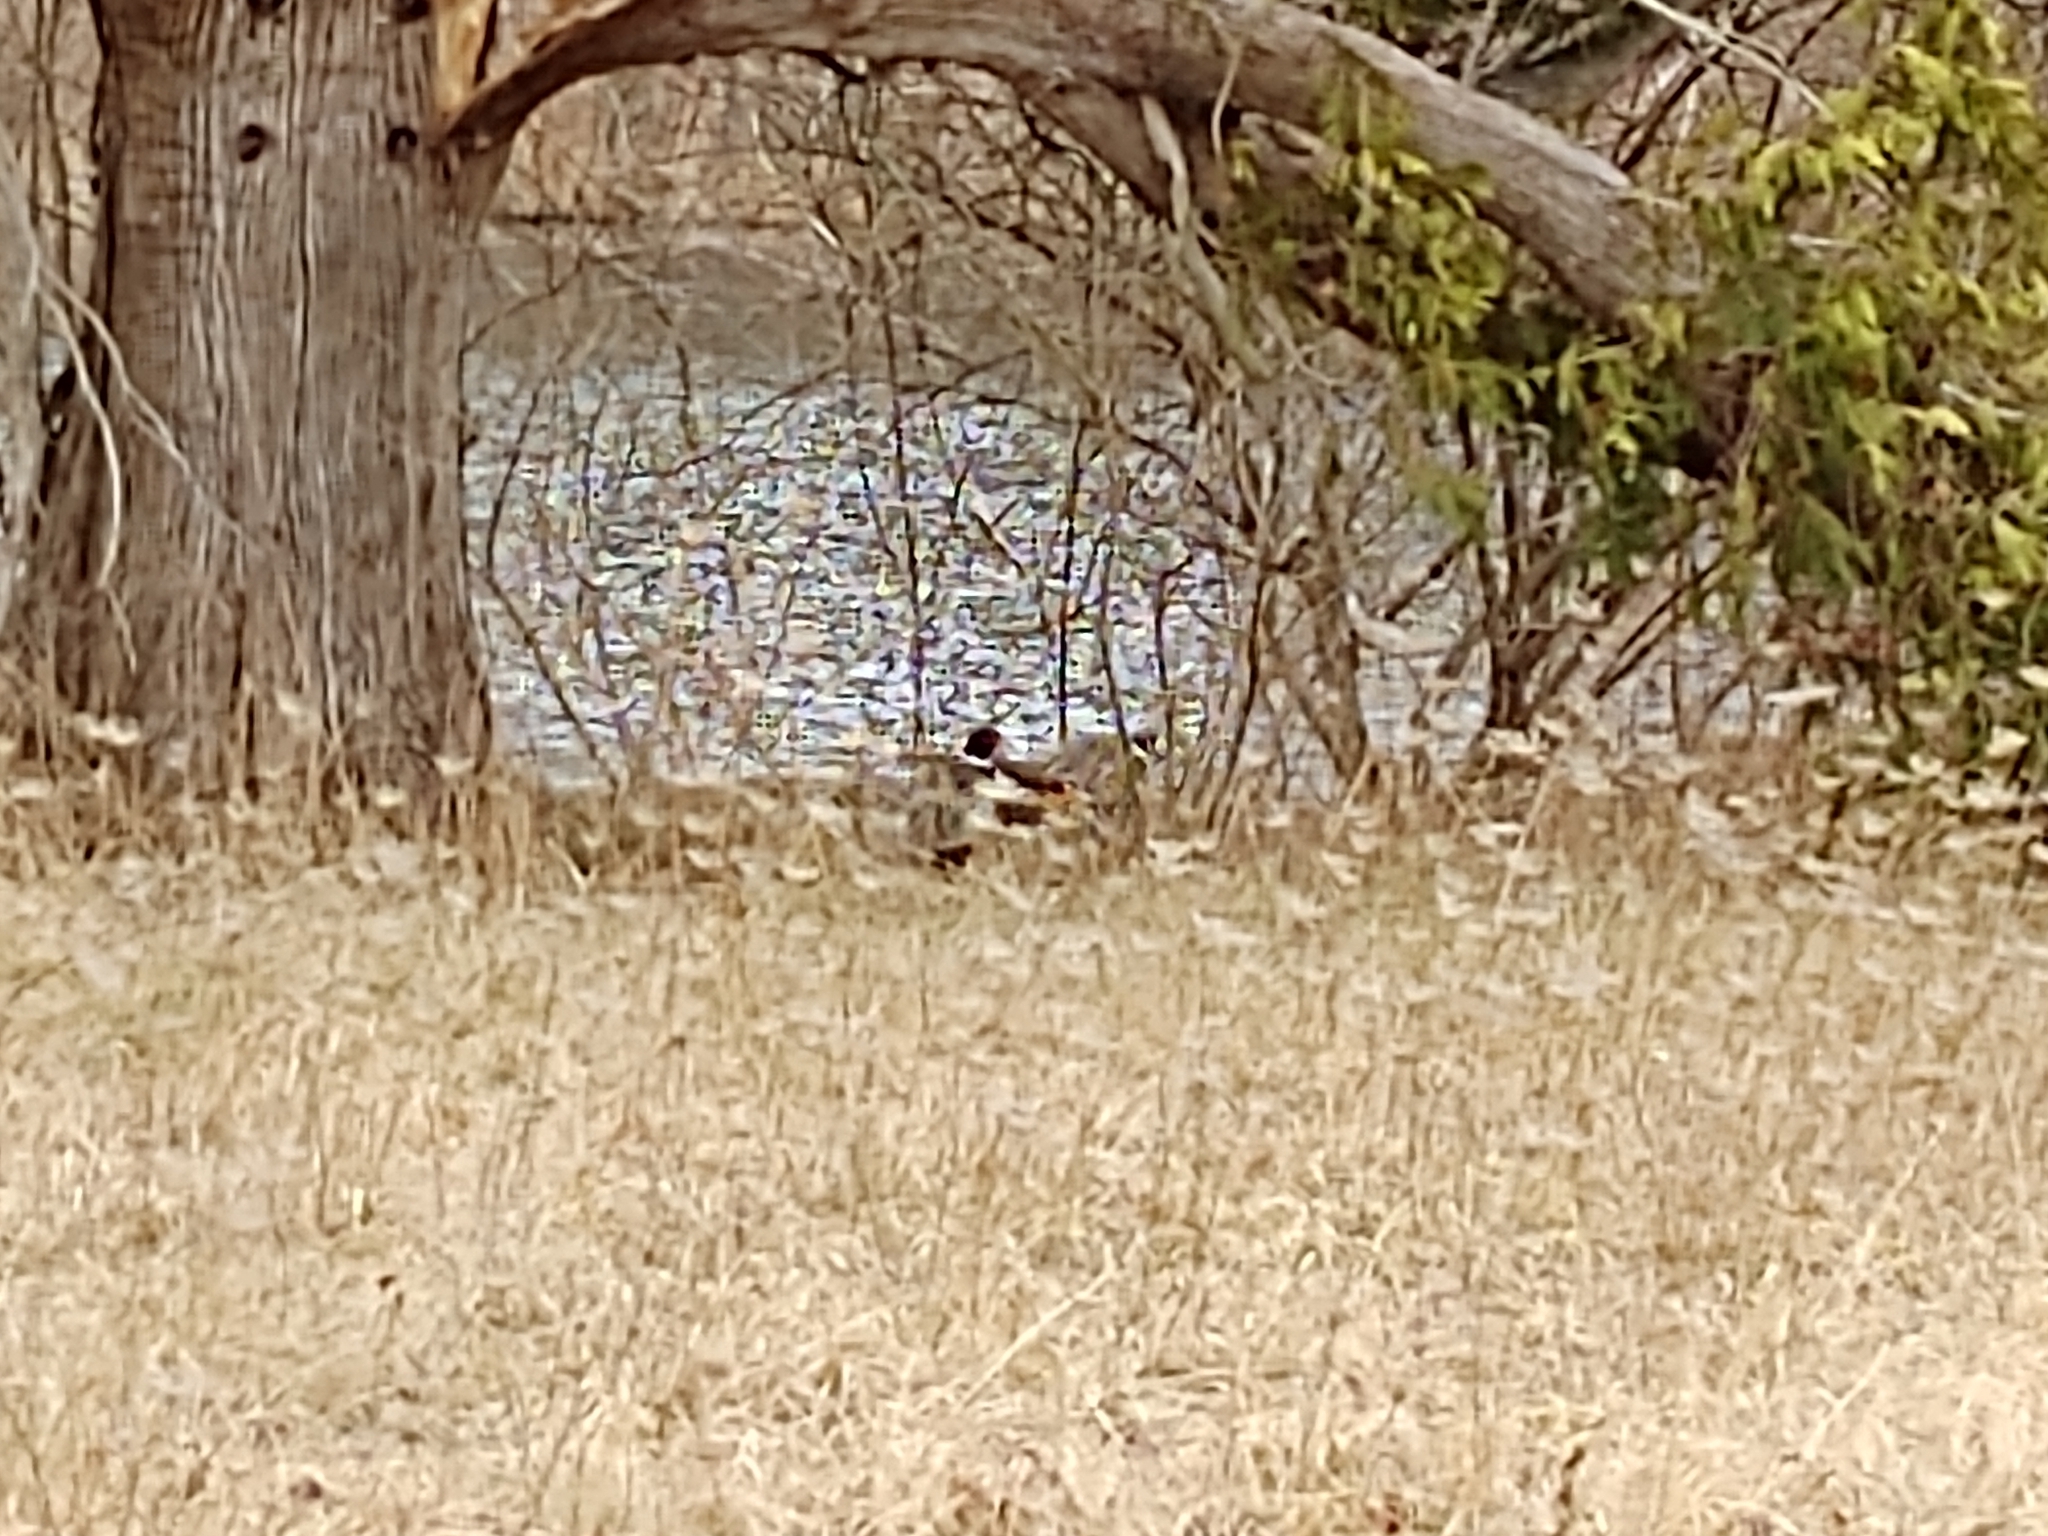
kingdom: Animalia
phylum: Chordata
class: Aves
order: Galliformes
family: Phasianidae
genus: Phasianus
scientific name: Phasianus colchicus
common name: Common pheasant
